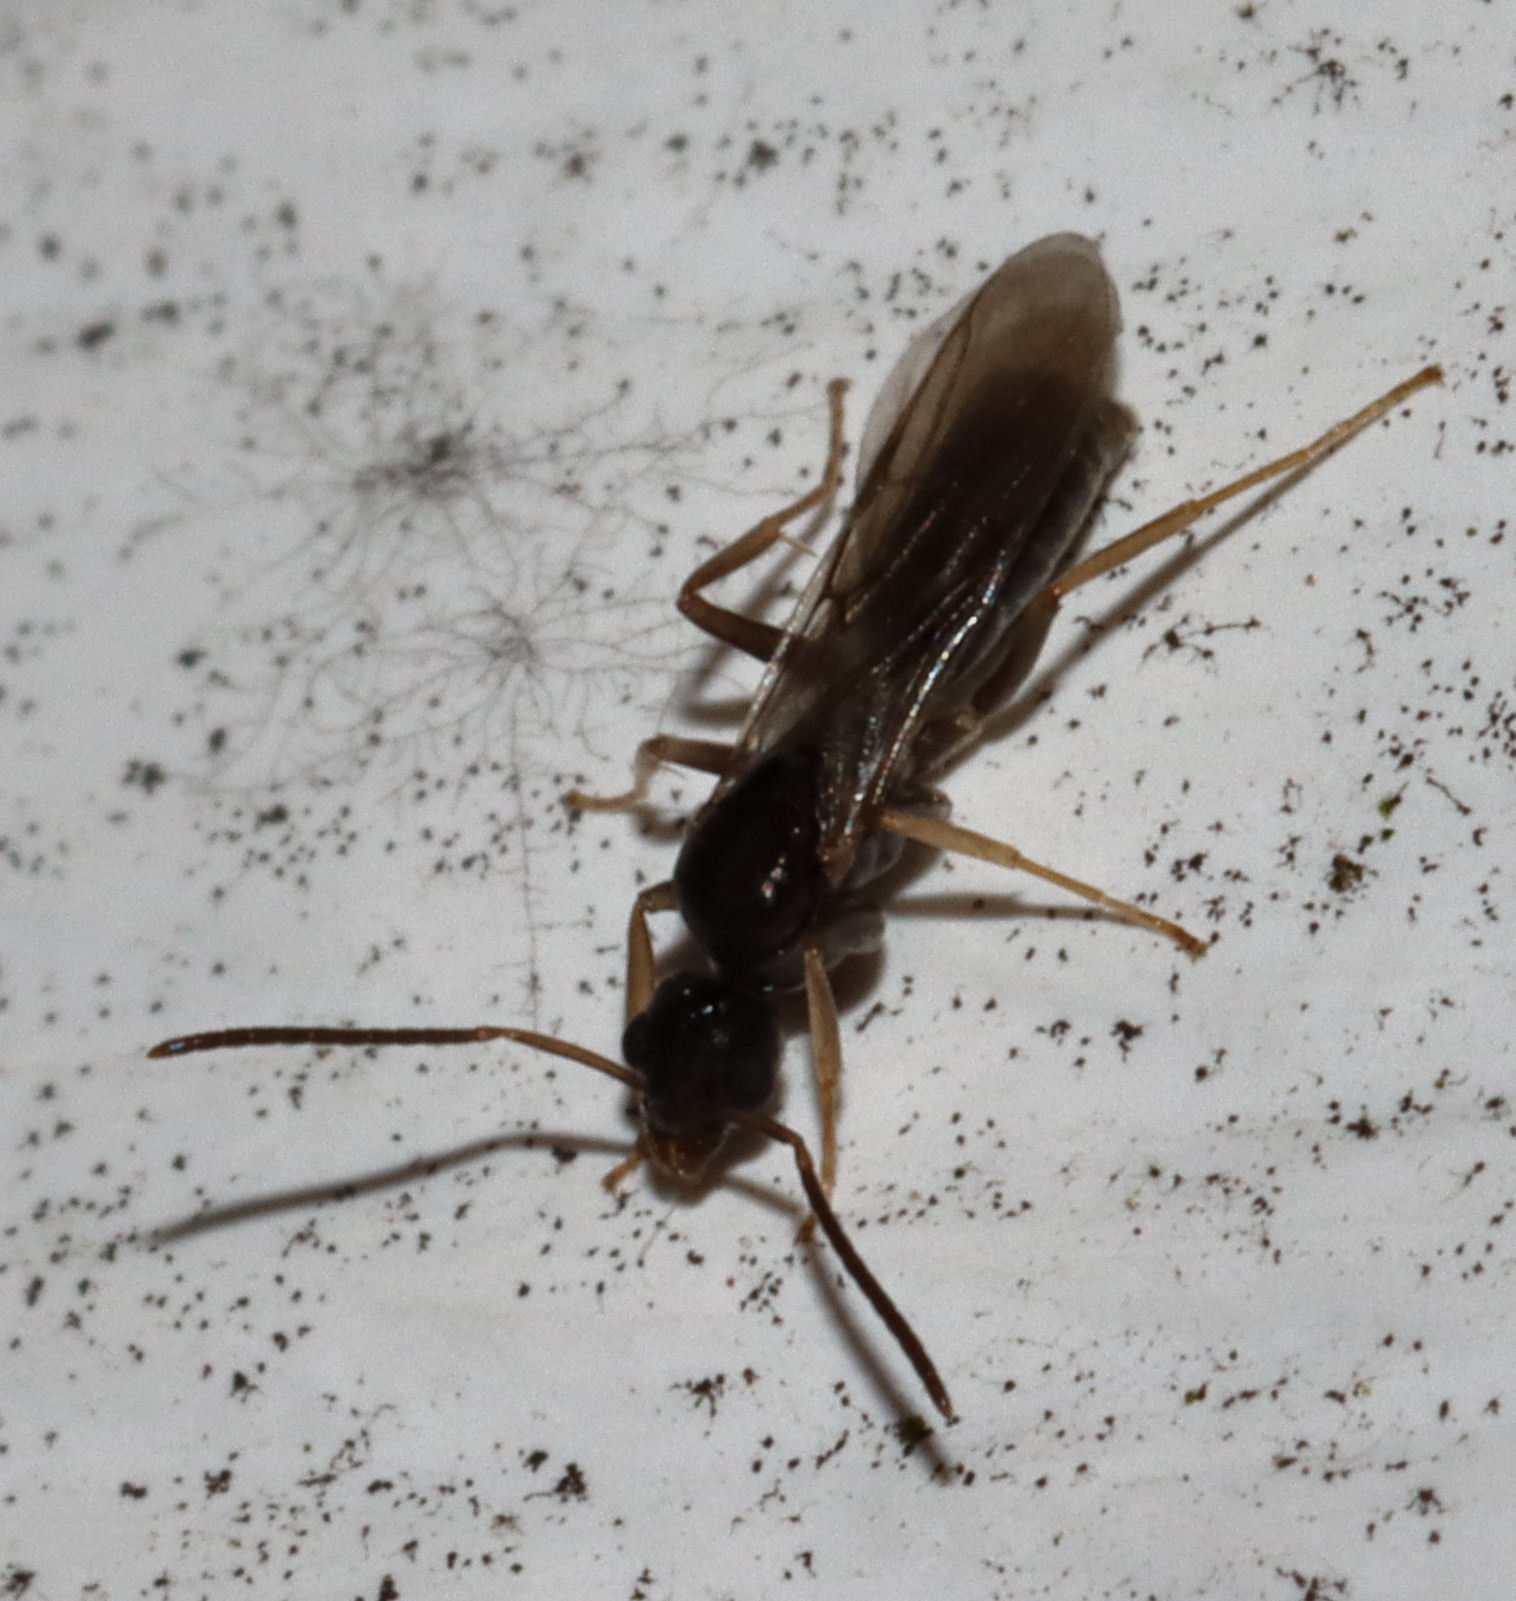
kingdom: Animalia
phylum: Arthropoda
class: Insecta
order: Hymenoptera
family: Formicidae
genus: Tapinoma
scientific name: Tapinoma sessile
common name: Odorous house ant
